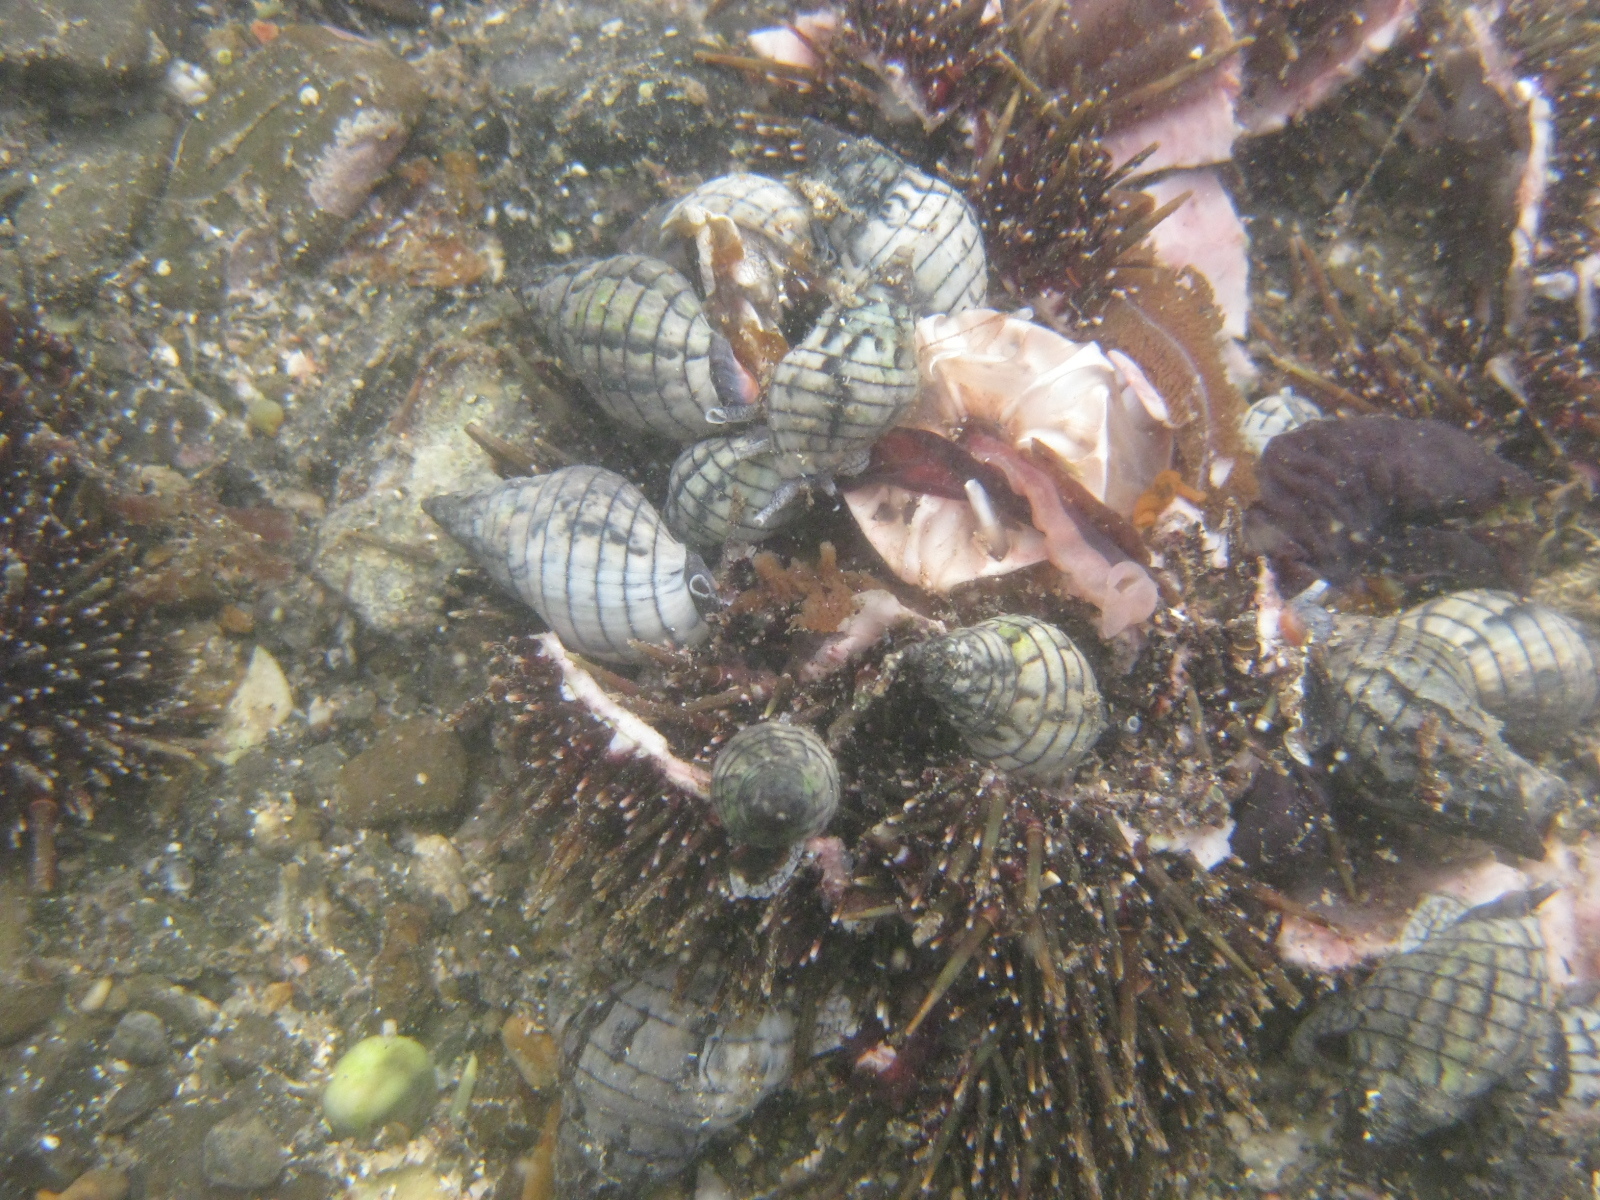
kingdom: Animalia
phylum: Mollusca
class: Gastropoda
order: Neogastropoda
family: Cominellidae
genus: Cominella
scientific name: Cominella virgata
